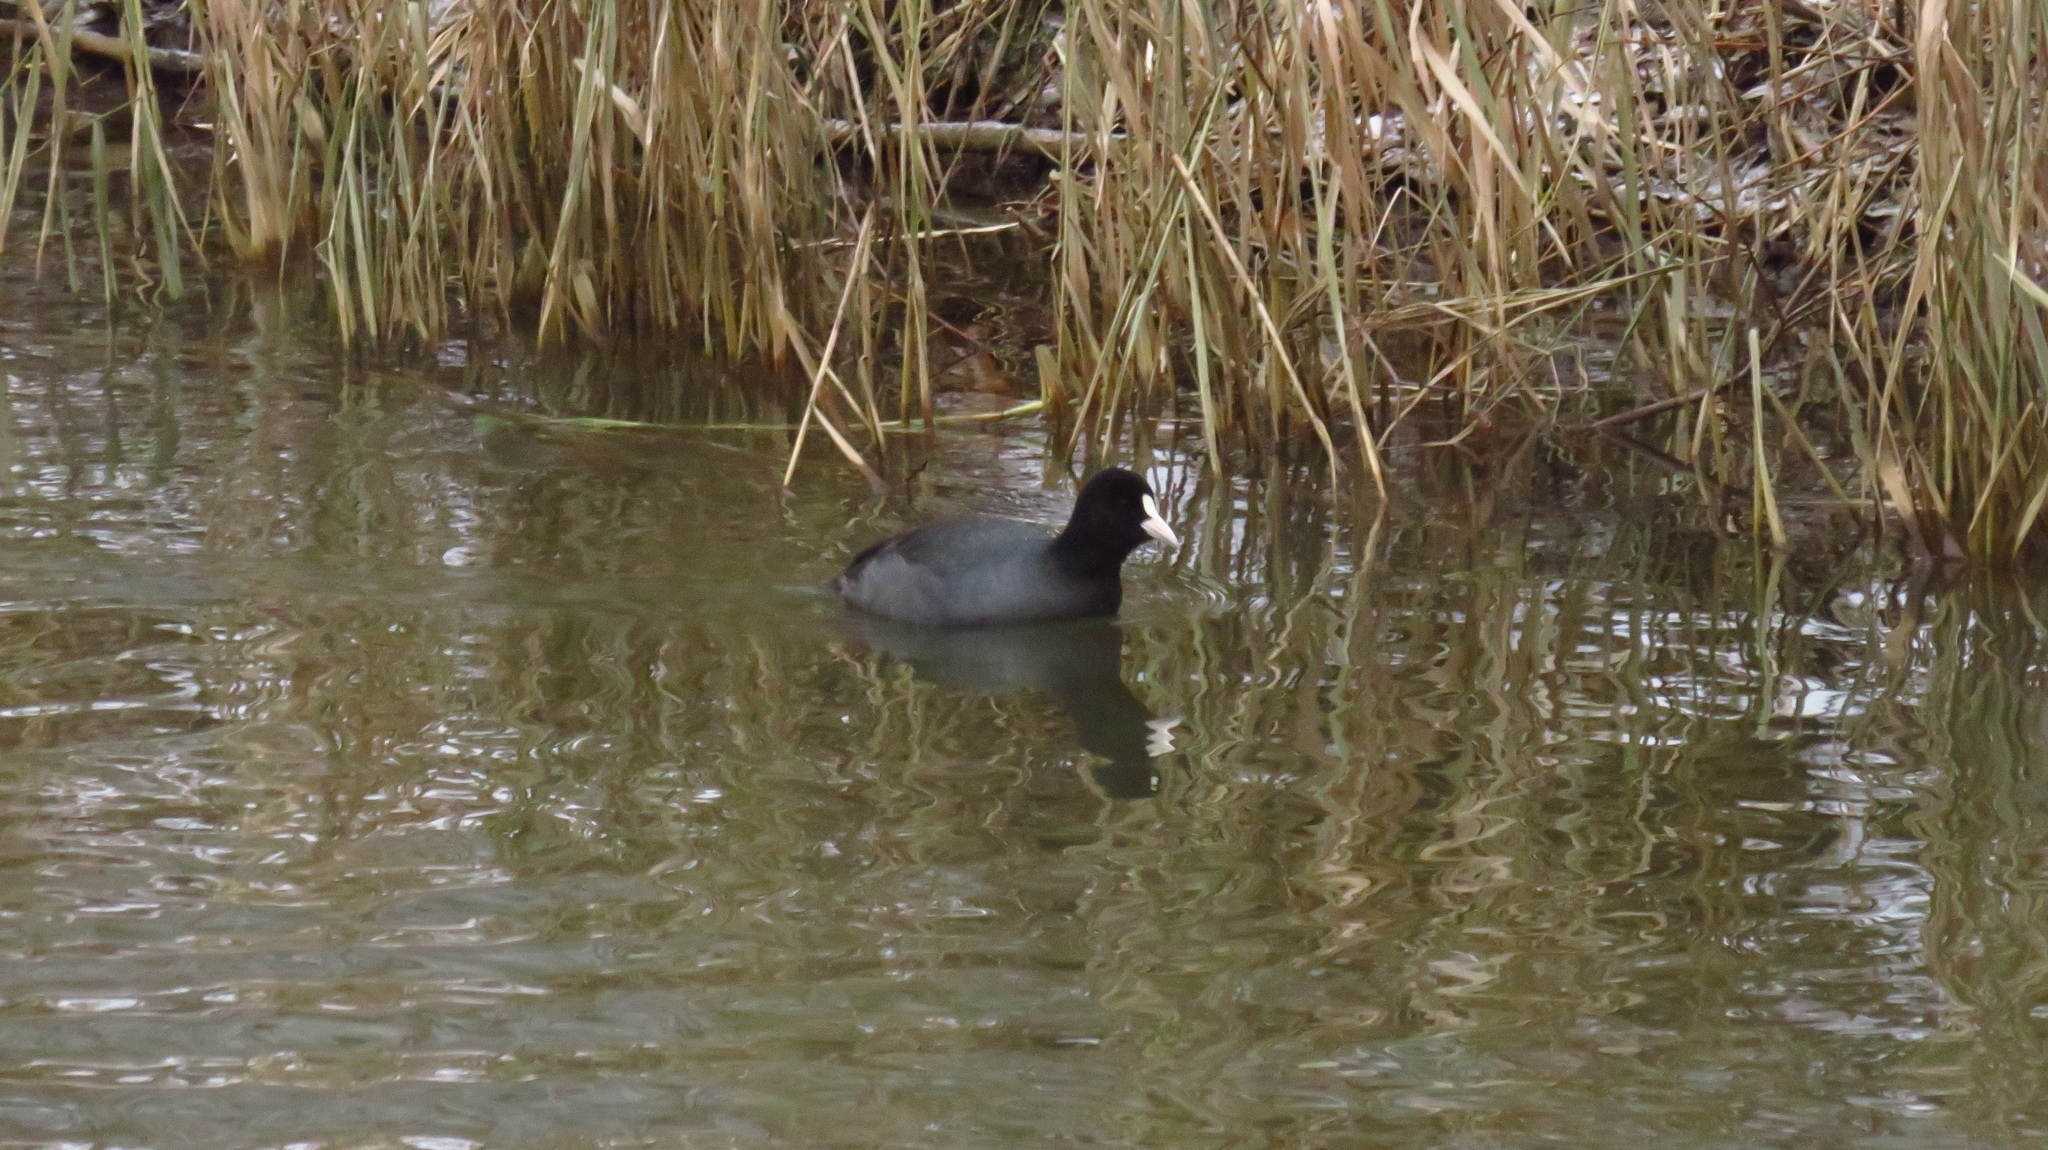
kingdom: Animalia
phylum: Chordata
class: Aves
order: Gruiformes
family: Rallidae
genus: Fulica
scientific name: Fulica atra
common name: Eurasian coot
